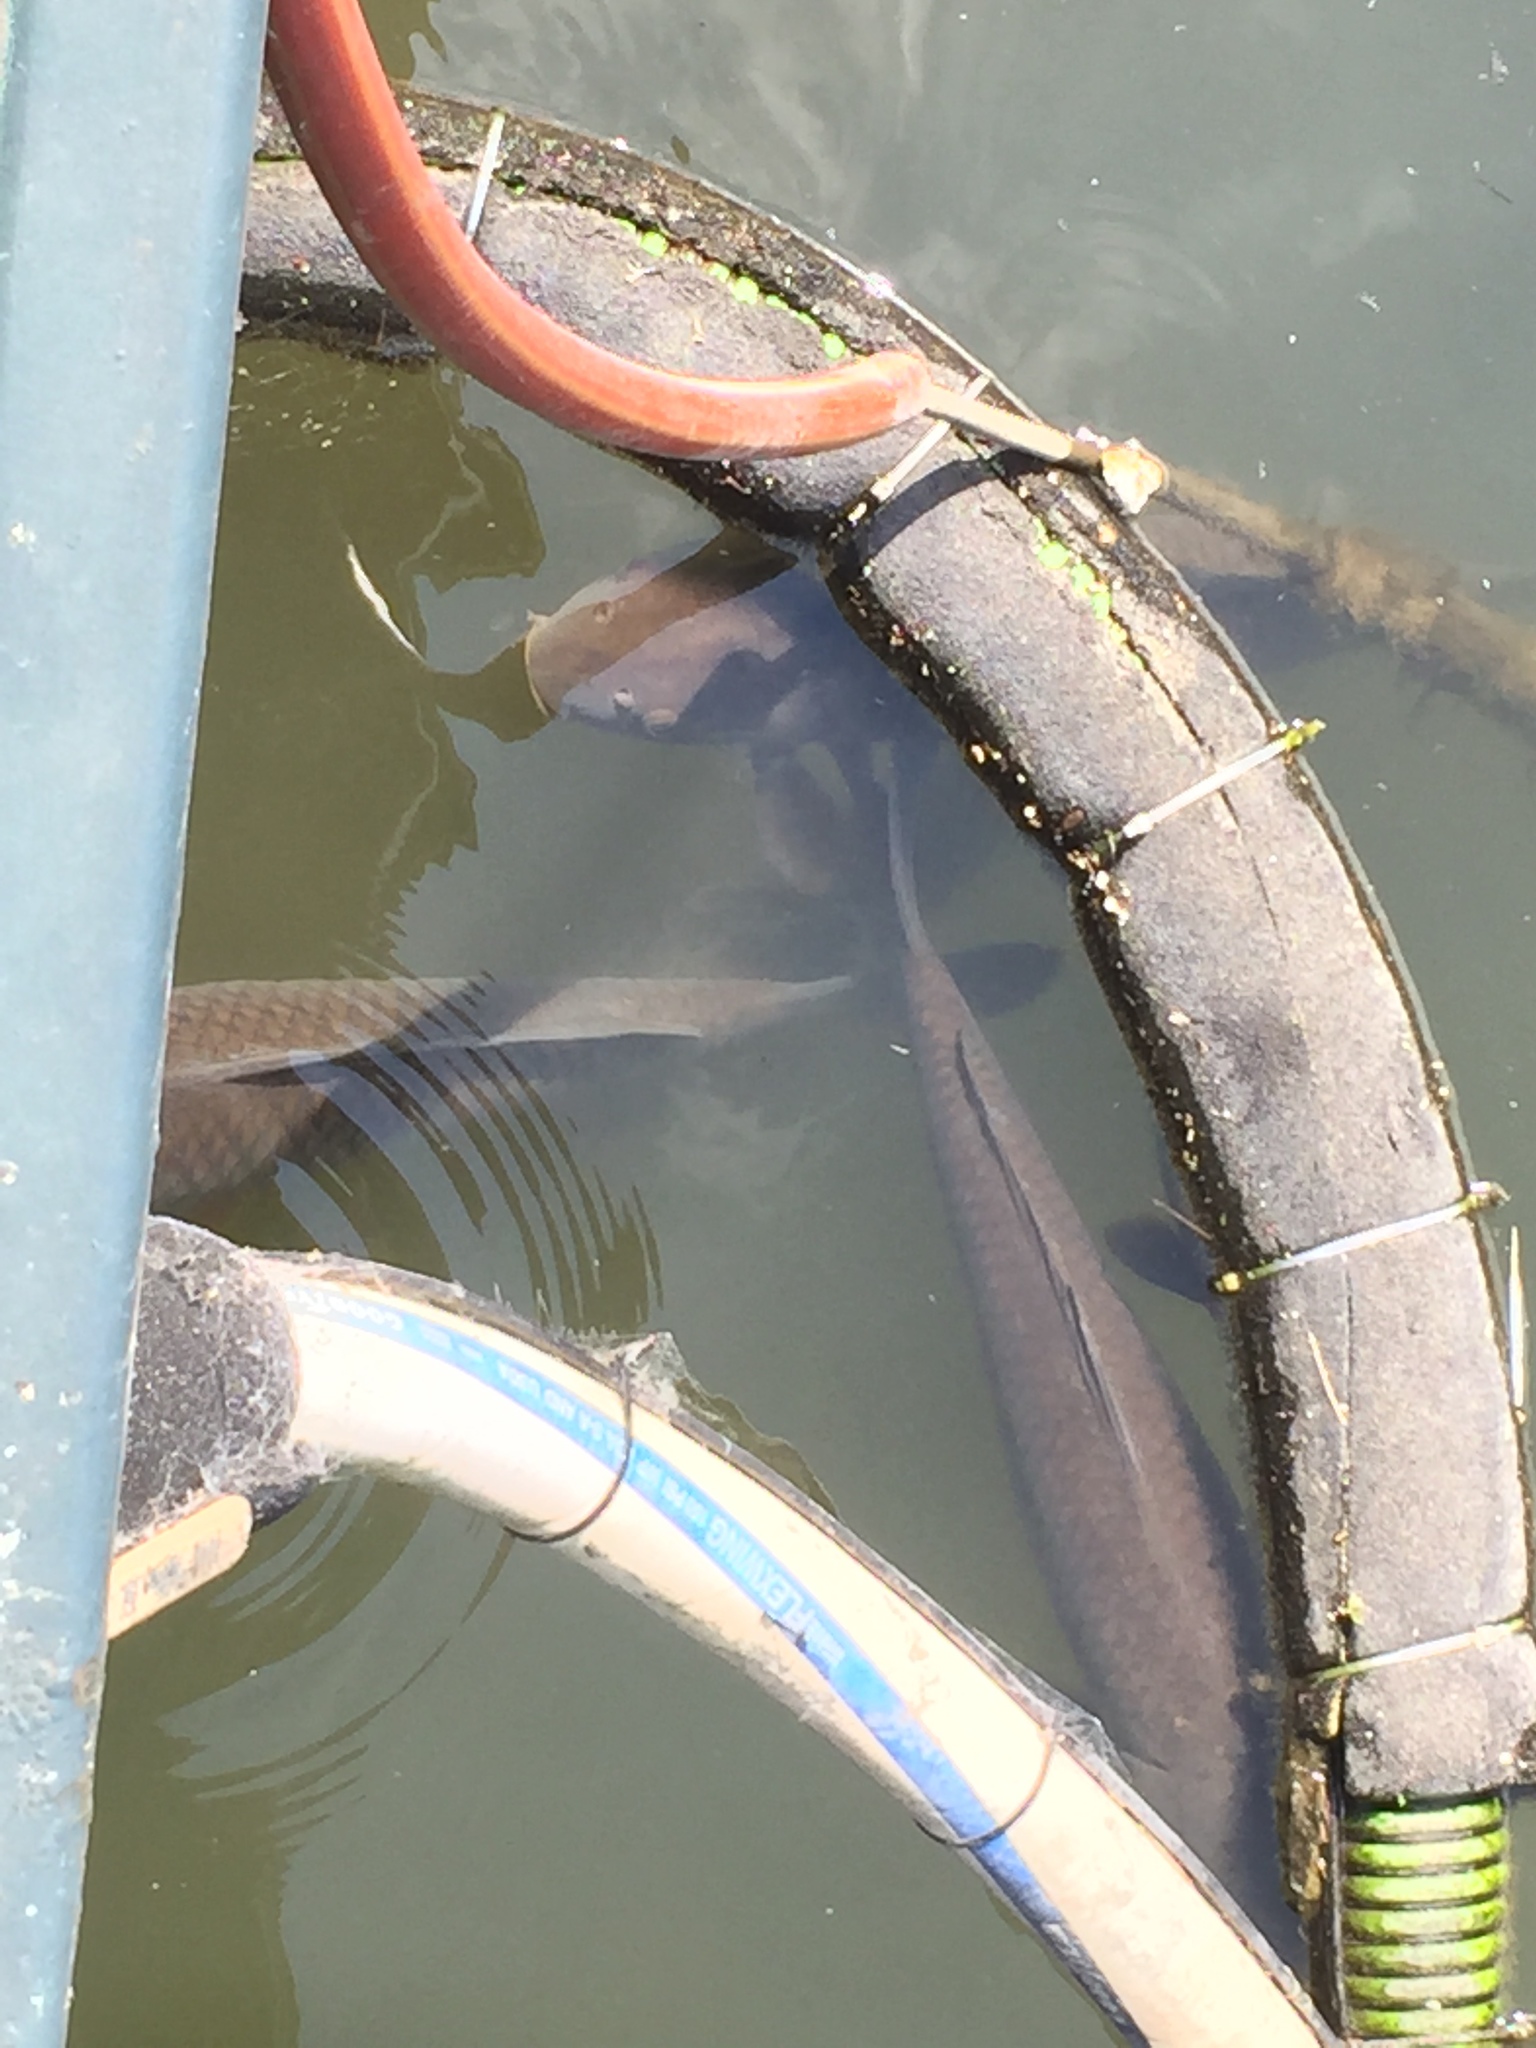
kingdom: Animalia
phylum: Chordata
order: Cypriniformes
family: Cyprinidae
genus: Cyprinus
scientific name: Cyprinus carpio
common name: Common carp
